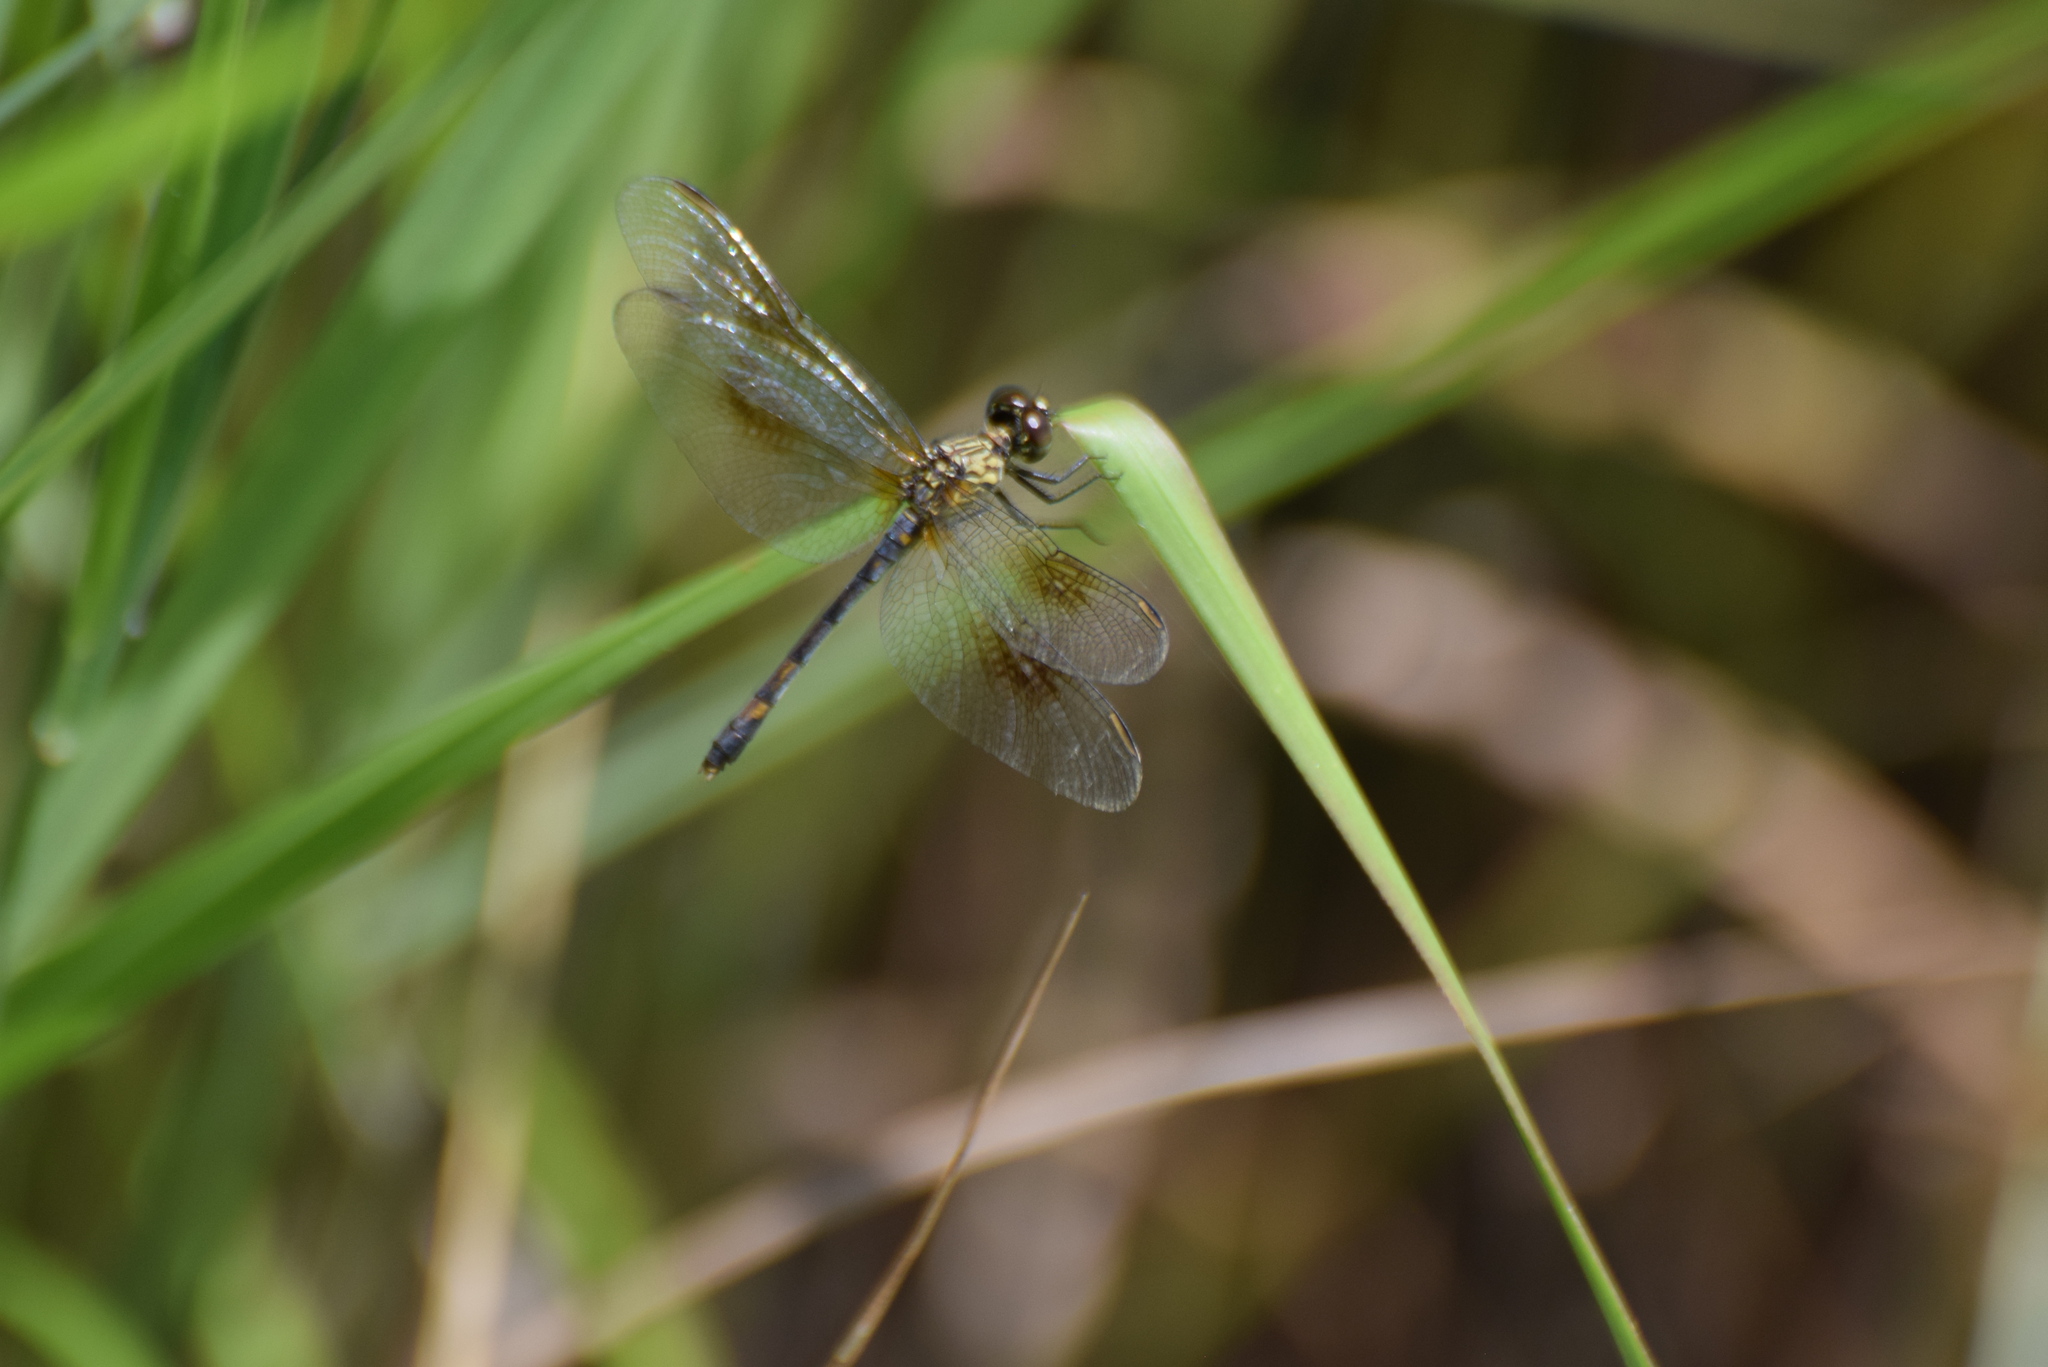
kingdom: Animalia
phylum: Arthropoda
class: Insecta
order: Odonata
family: Libellulidae
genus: Erythrodiplax
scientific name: Erythrodiplax berenice
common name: Seaside dragonlet
